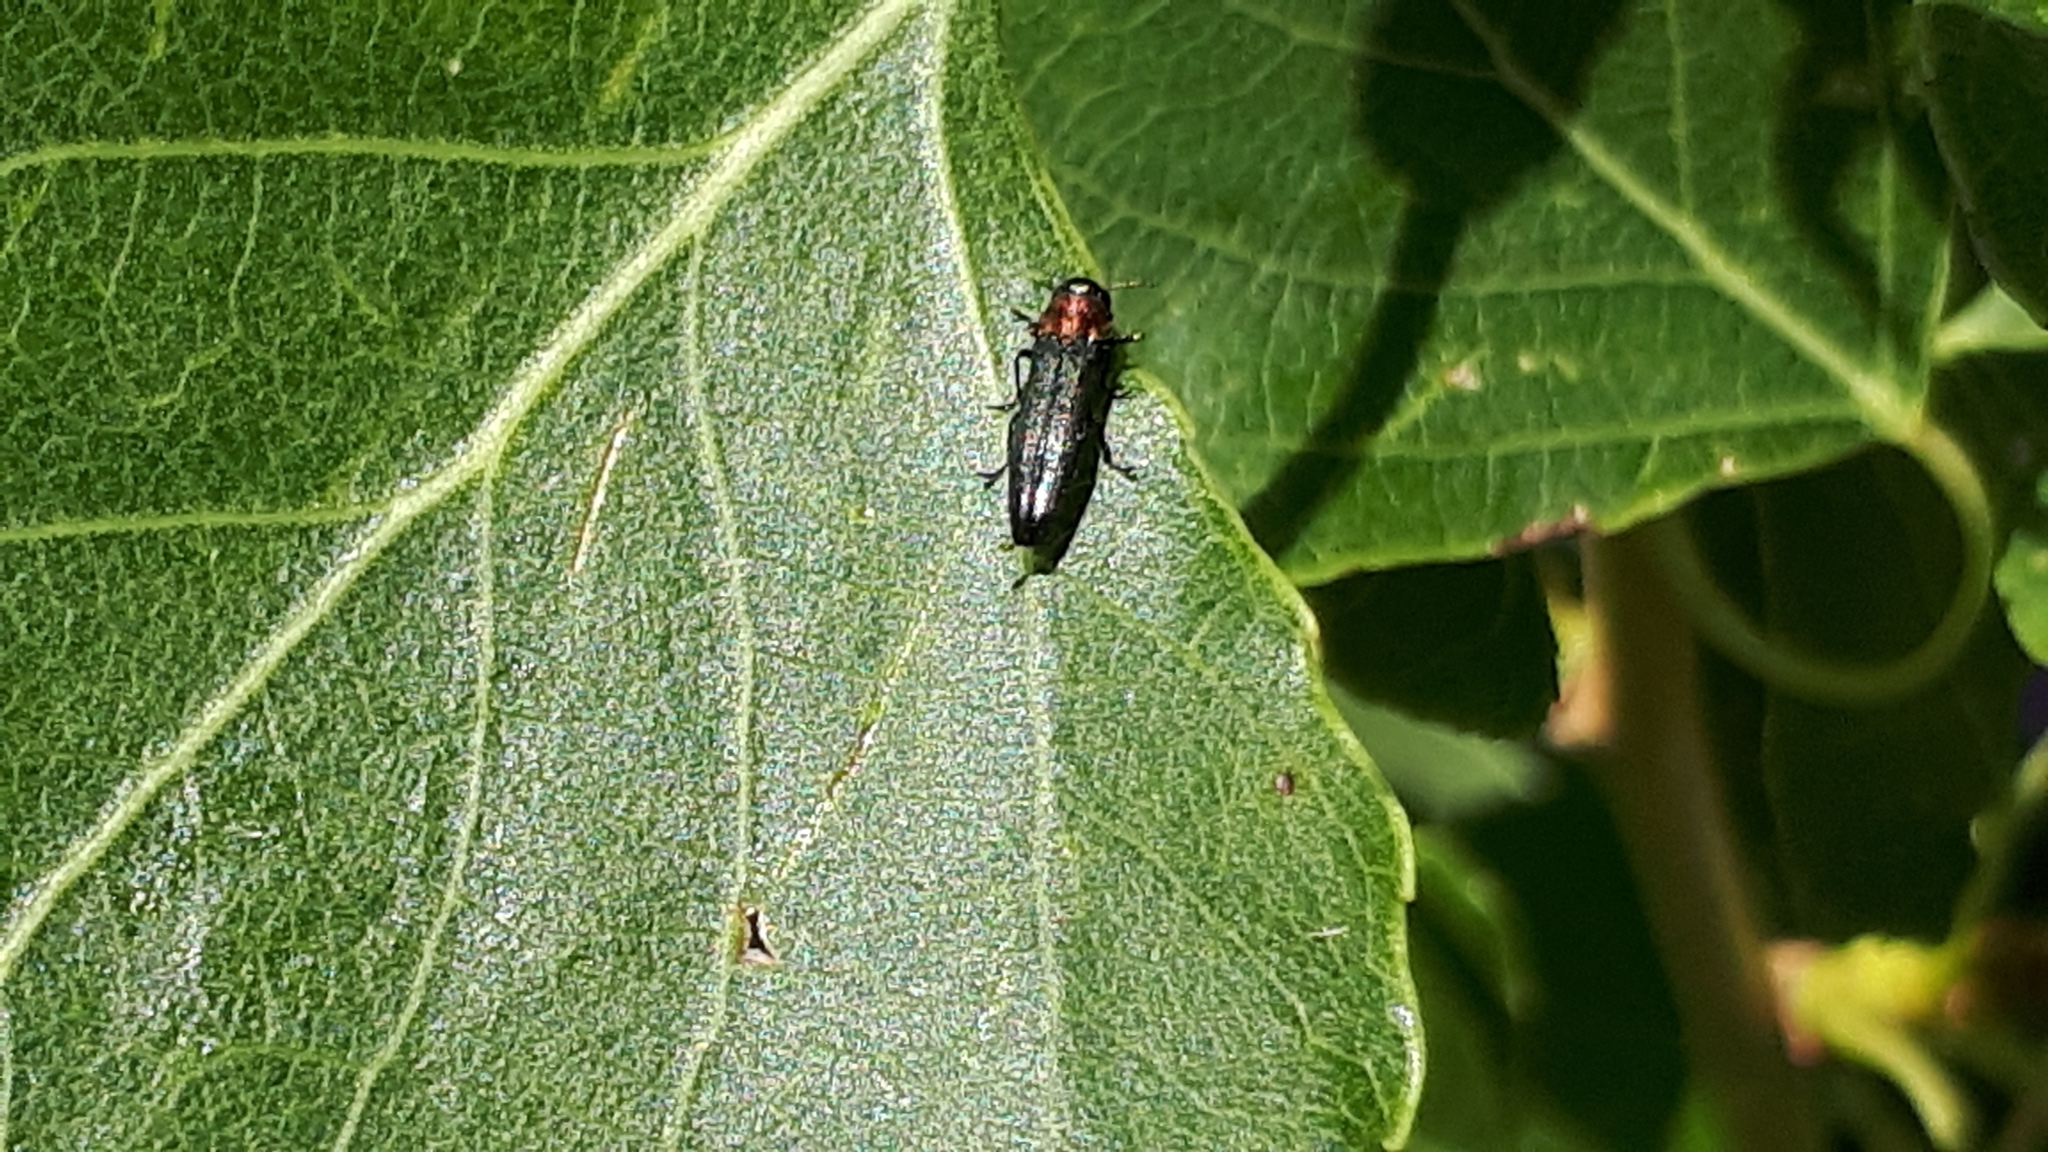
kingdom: Animalia
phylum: Arthropoda
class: Insecta
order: Coleoptera
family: Buprestidae
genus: Agrilus
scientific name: Agrilus pratensis
